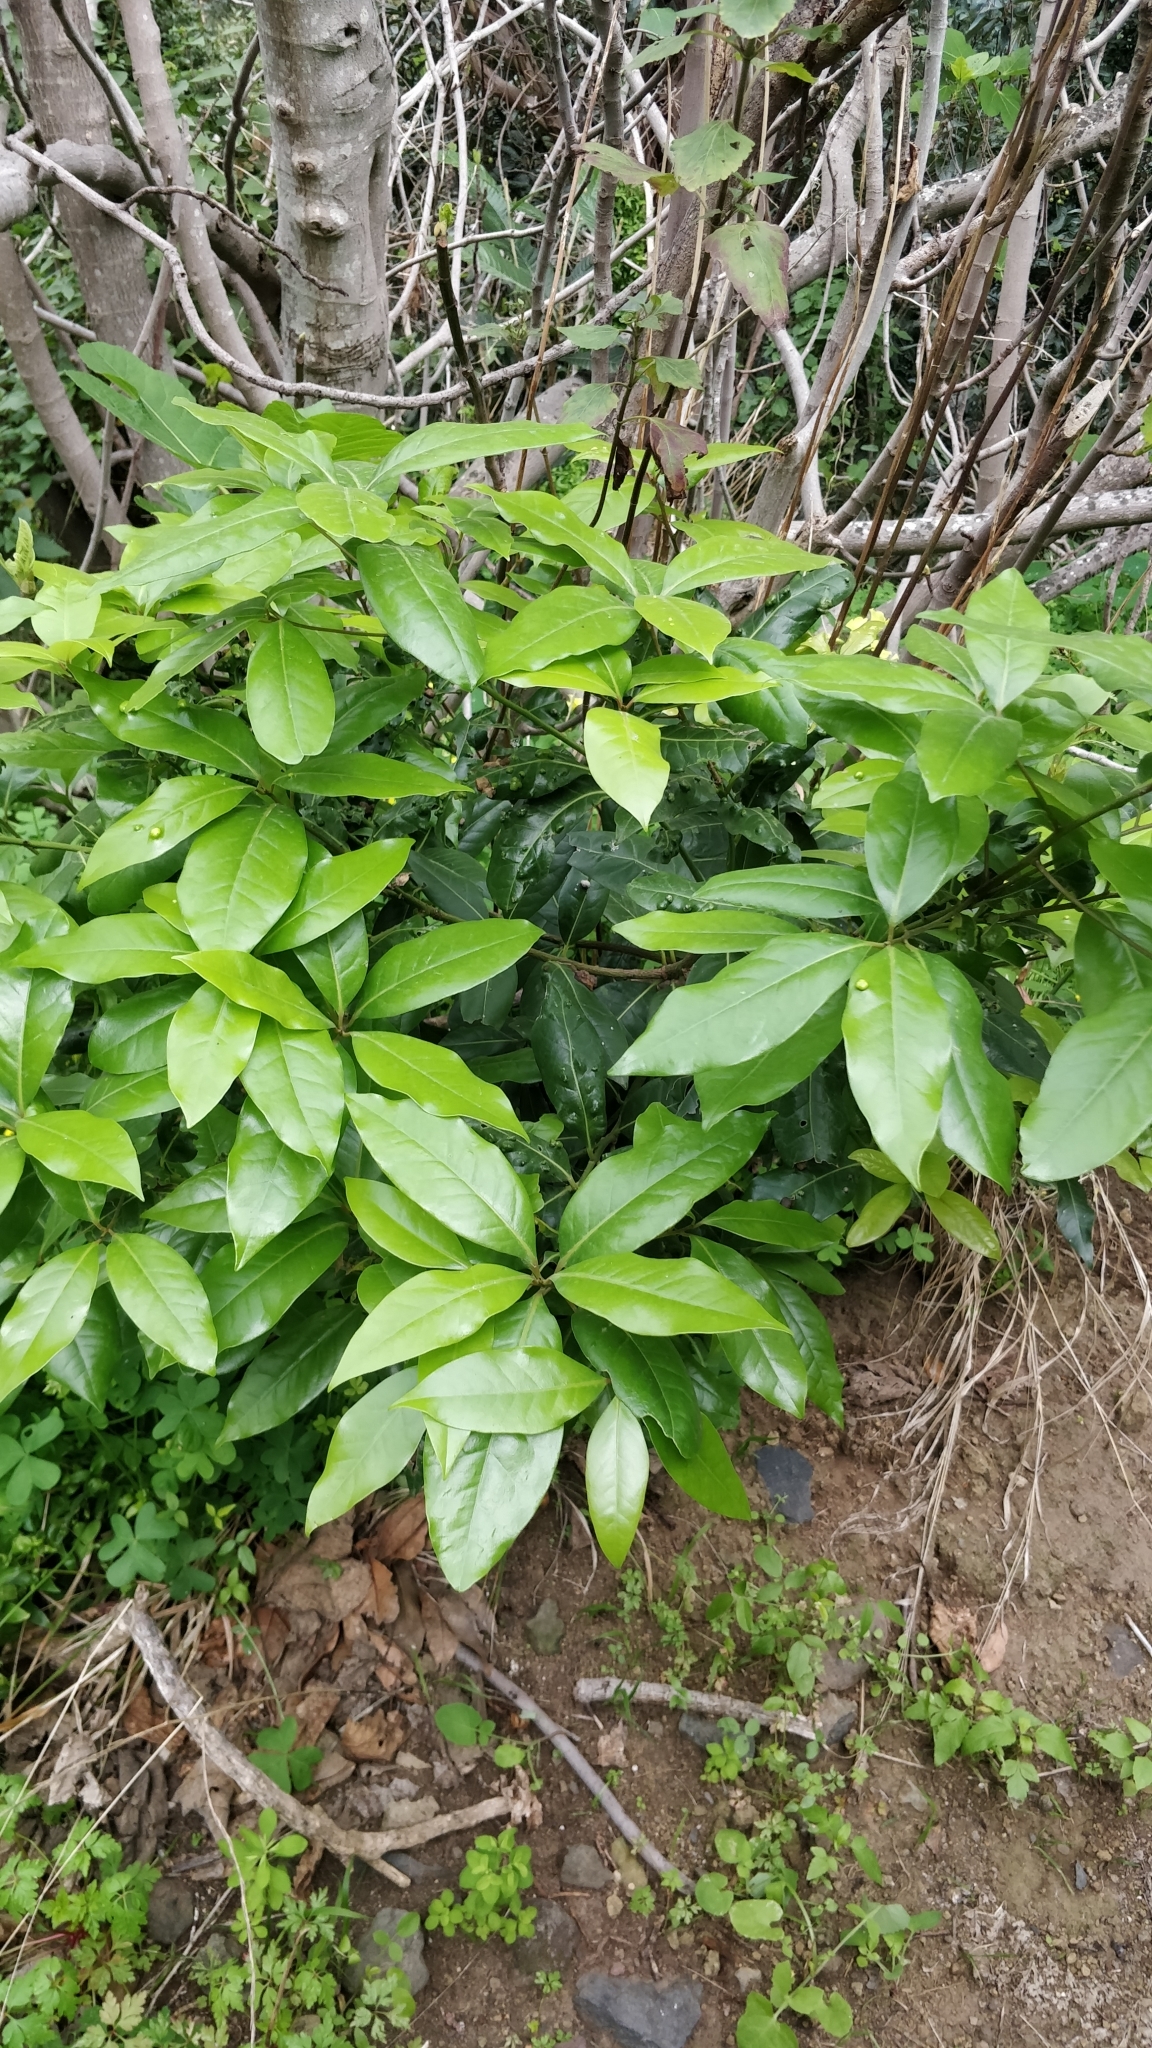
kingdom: Plantae
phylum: Tracheophyta
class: Magnoliopsida
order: Laurales
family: Lauraceae
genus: Apollonias
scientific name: Apollonias barbujana
